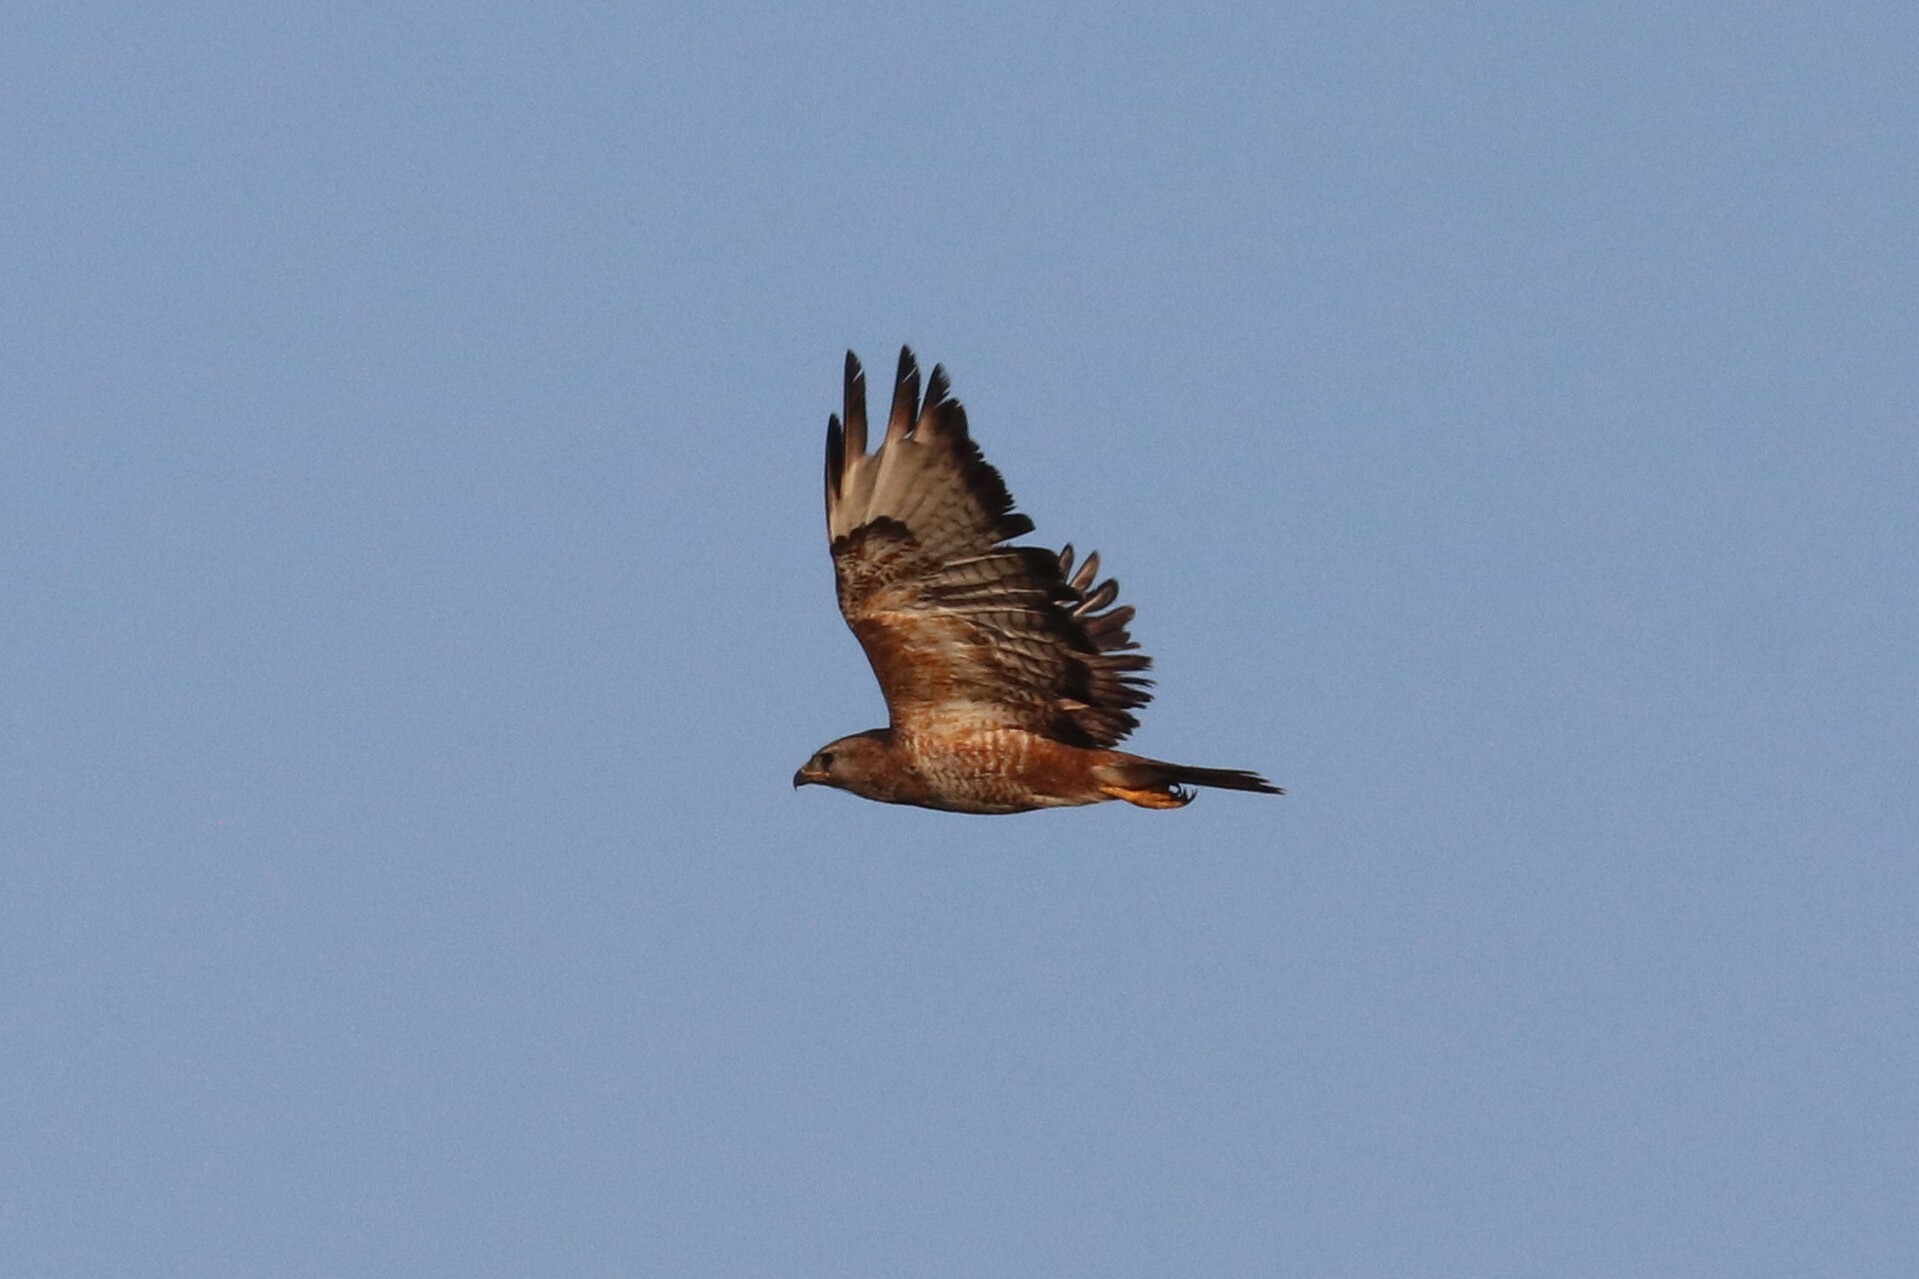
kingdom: Animalia
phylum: Chordata
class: Aves
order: Accipitriformes
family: Accipitridae
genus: Buteo
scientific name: Buteo buteo
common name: Common buzzard
